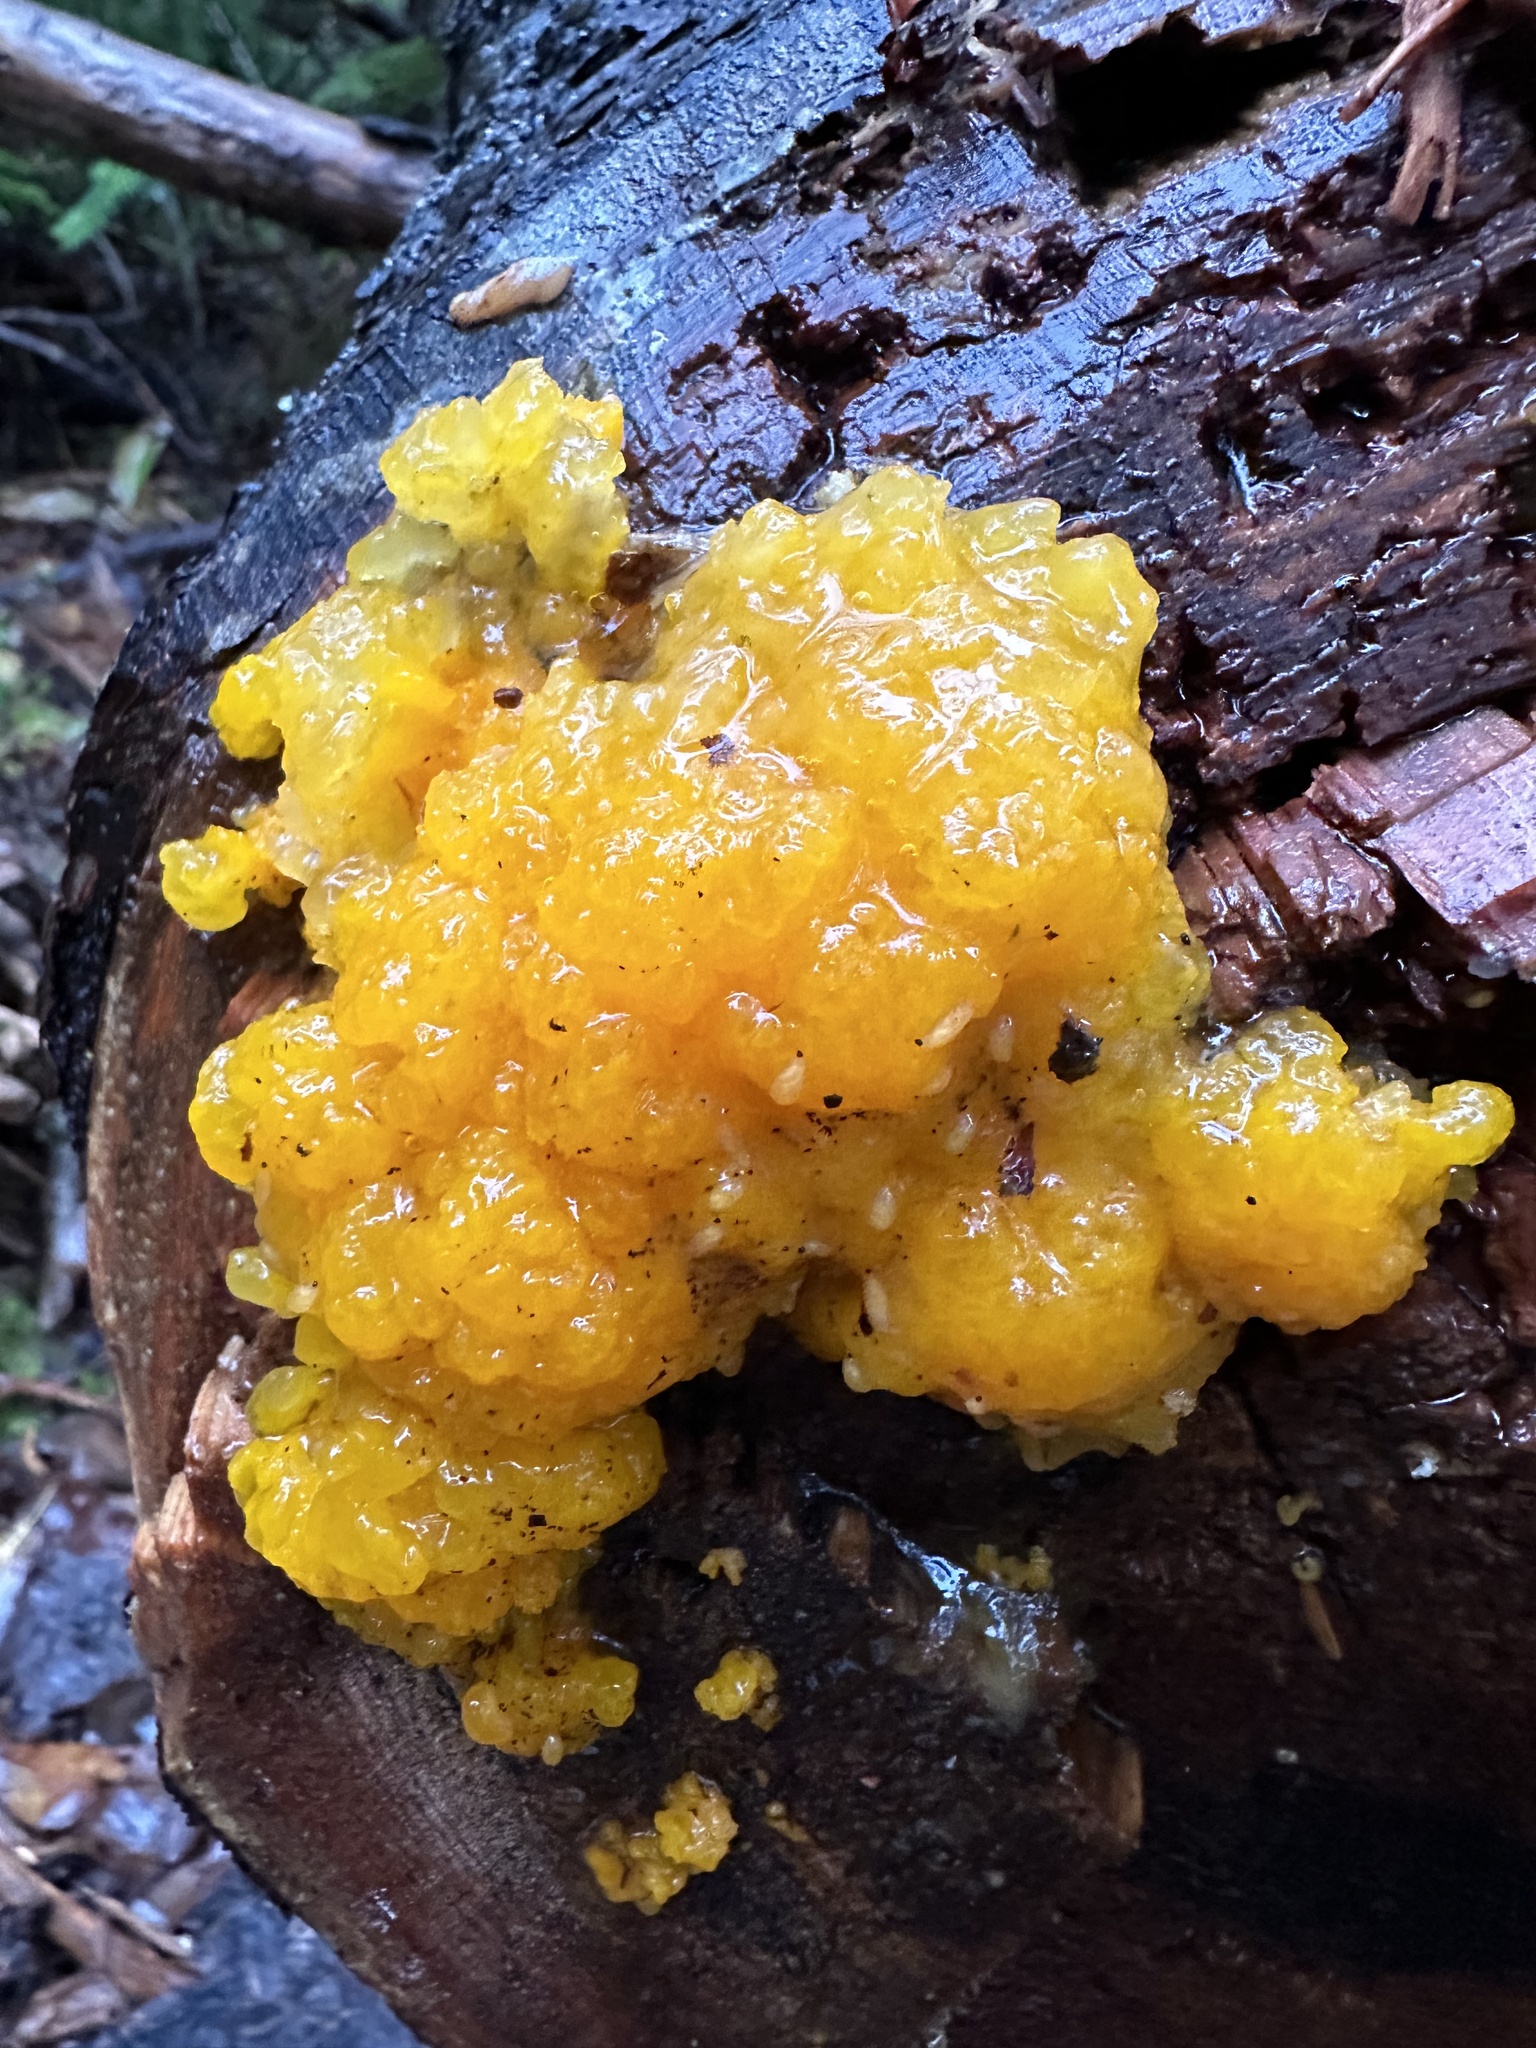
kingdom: Fungi
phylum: Basidiomycota
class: Dacrymycetes
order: Dacrymycetales
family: Dacrymycetaceae
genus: Dacrymyces
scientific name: Dacrymyces chrysospermus
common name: Orange jelly spot
